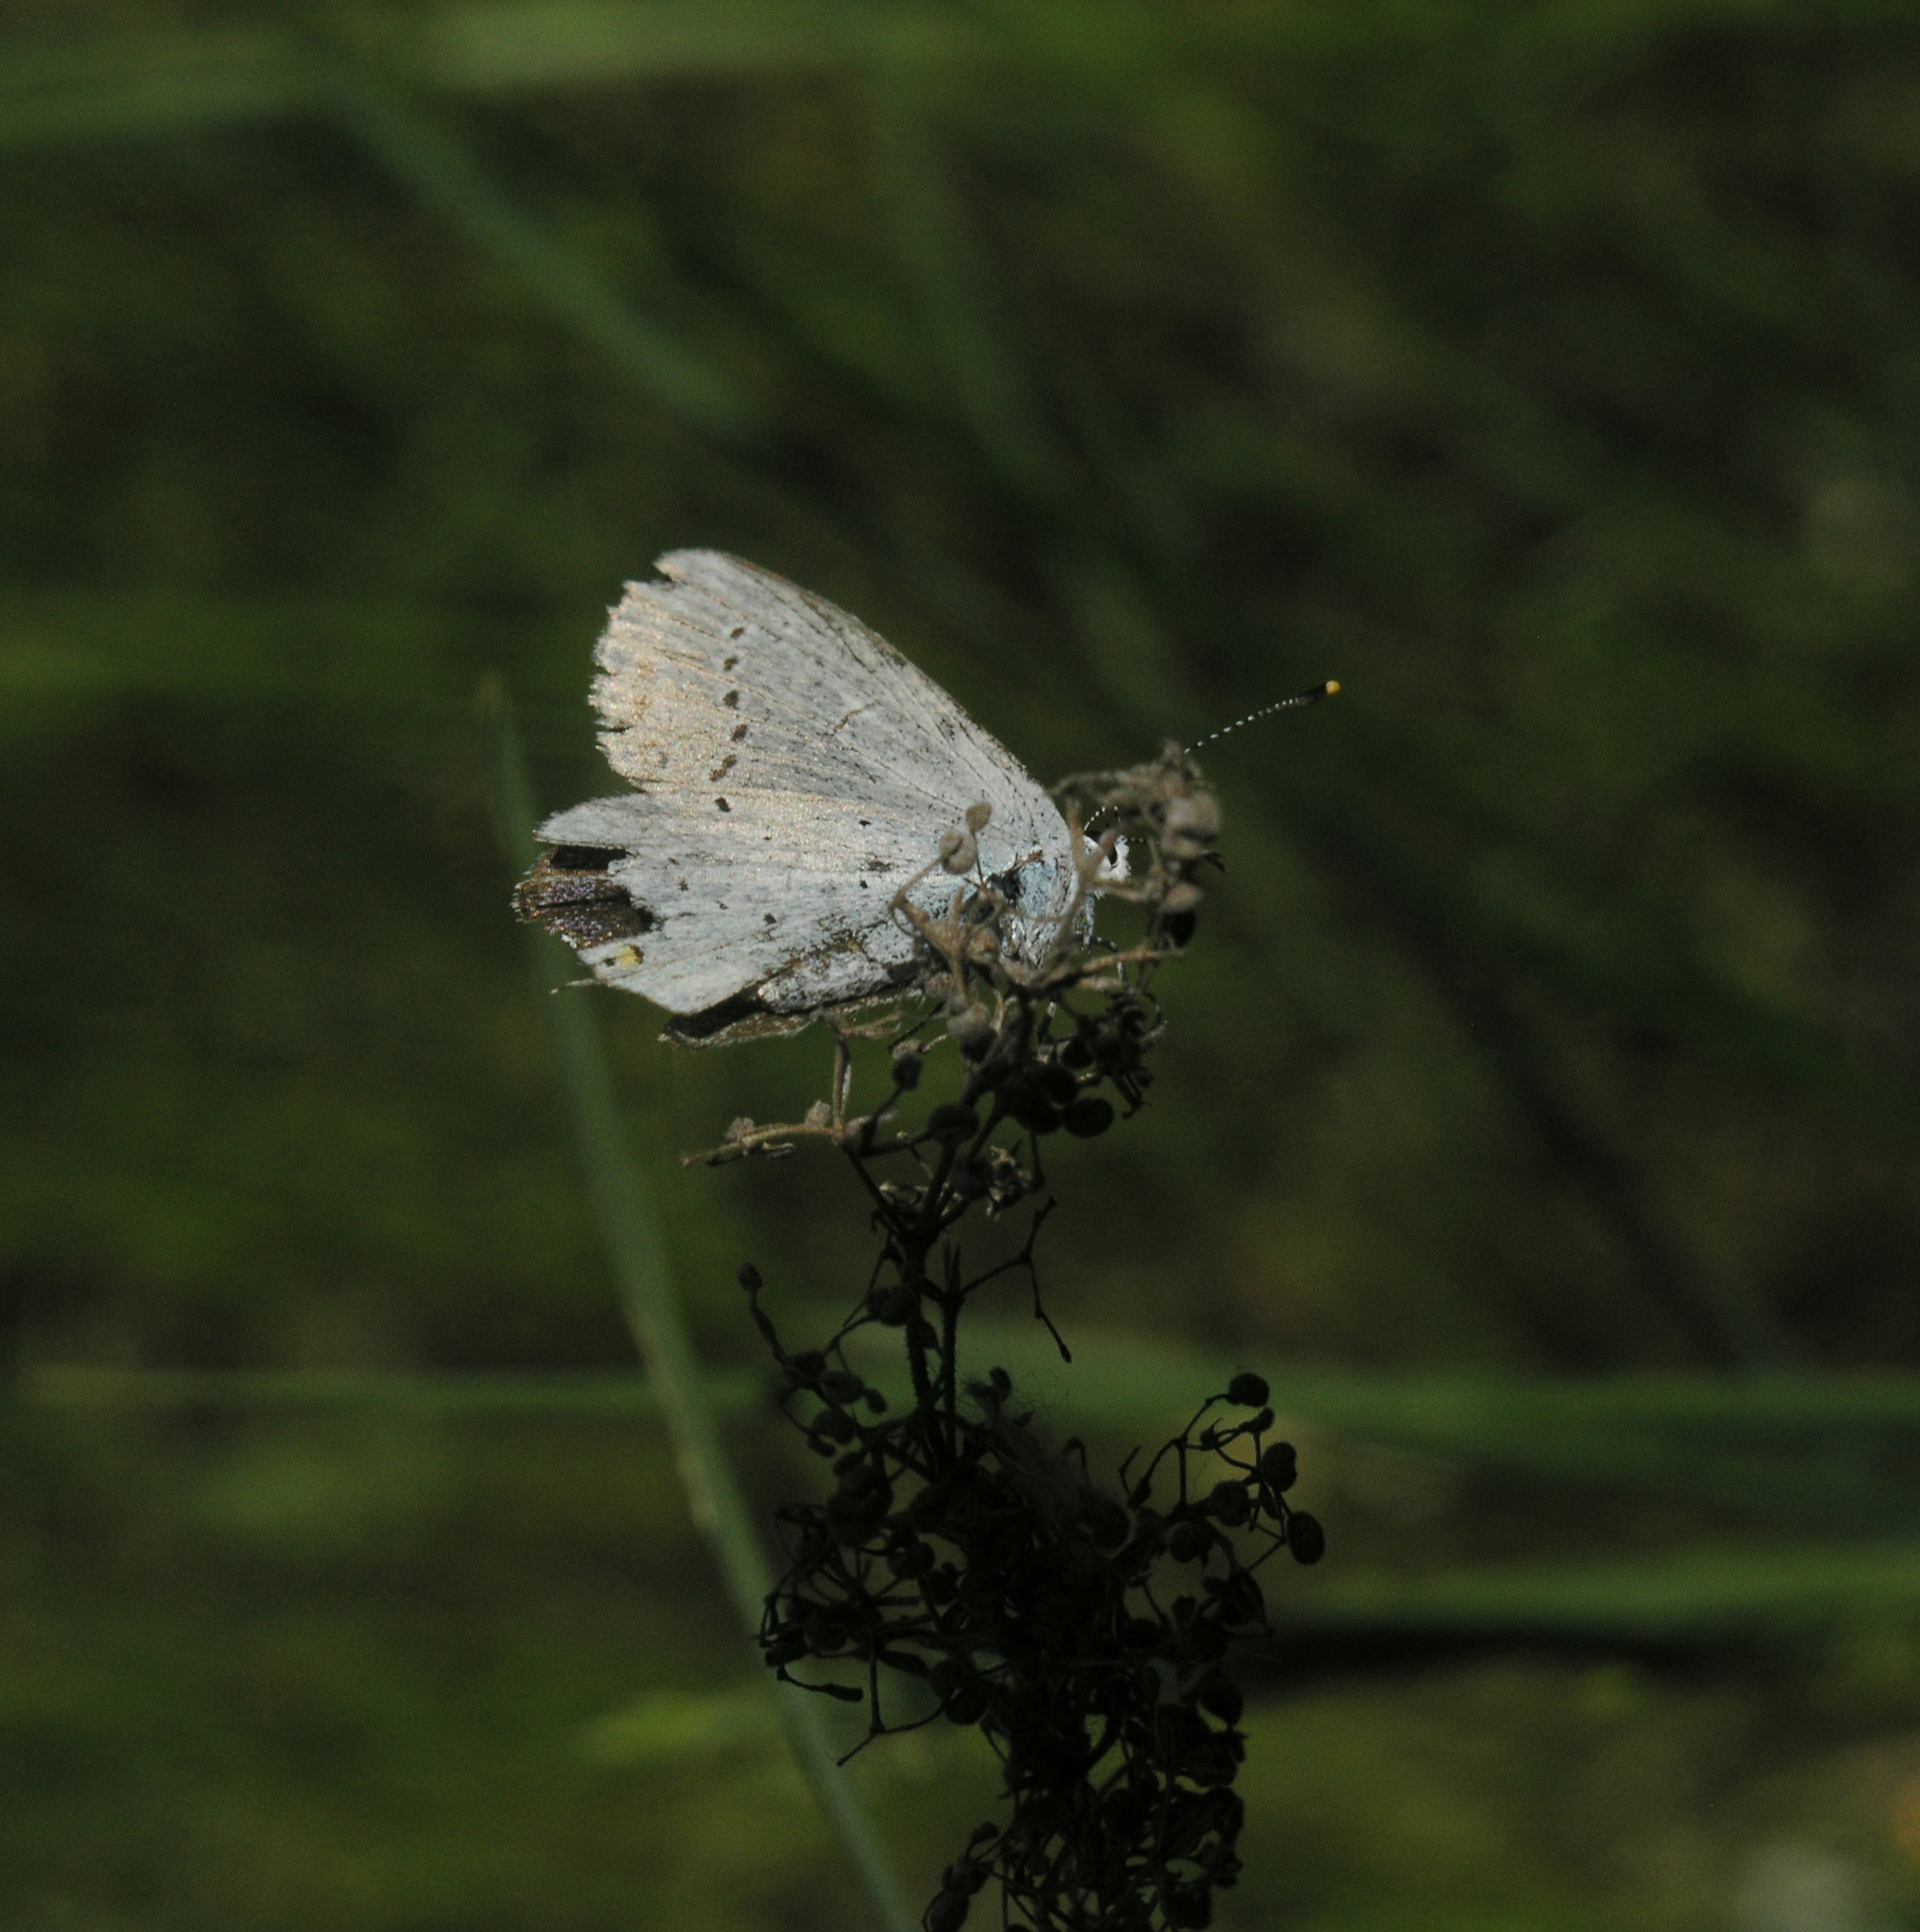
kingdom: Animalia
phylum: Arthropoda
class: Insecta
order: Lepidoptera
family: Lycaenidae
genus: Elkalyce
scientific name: Elkalyce argiades
